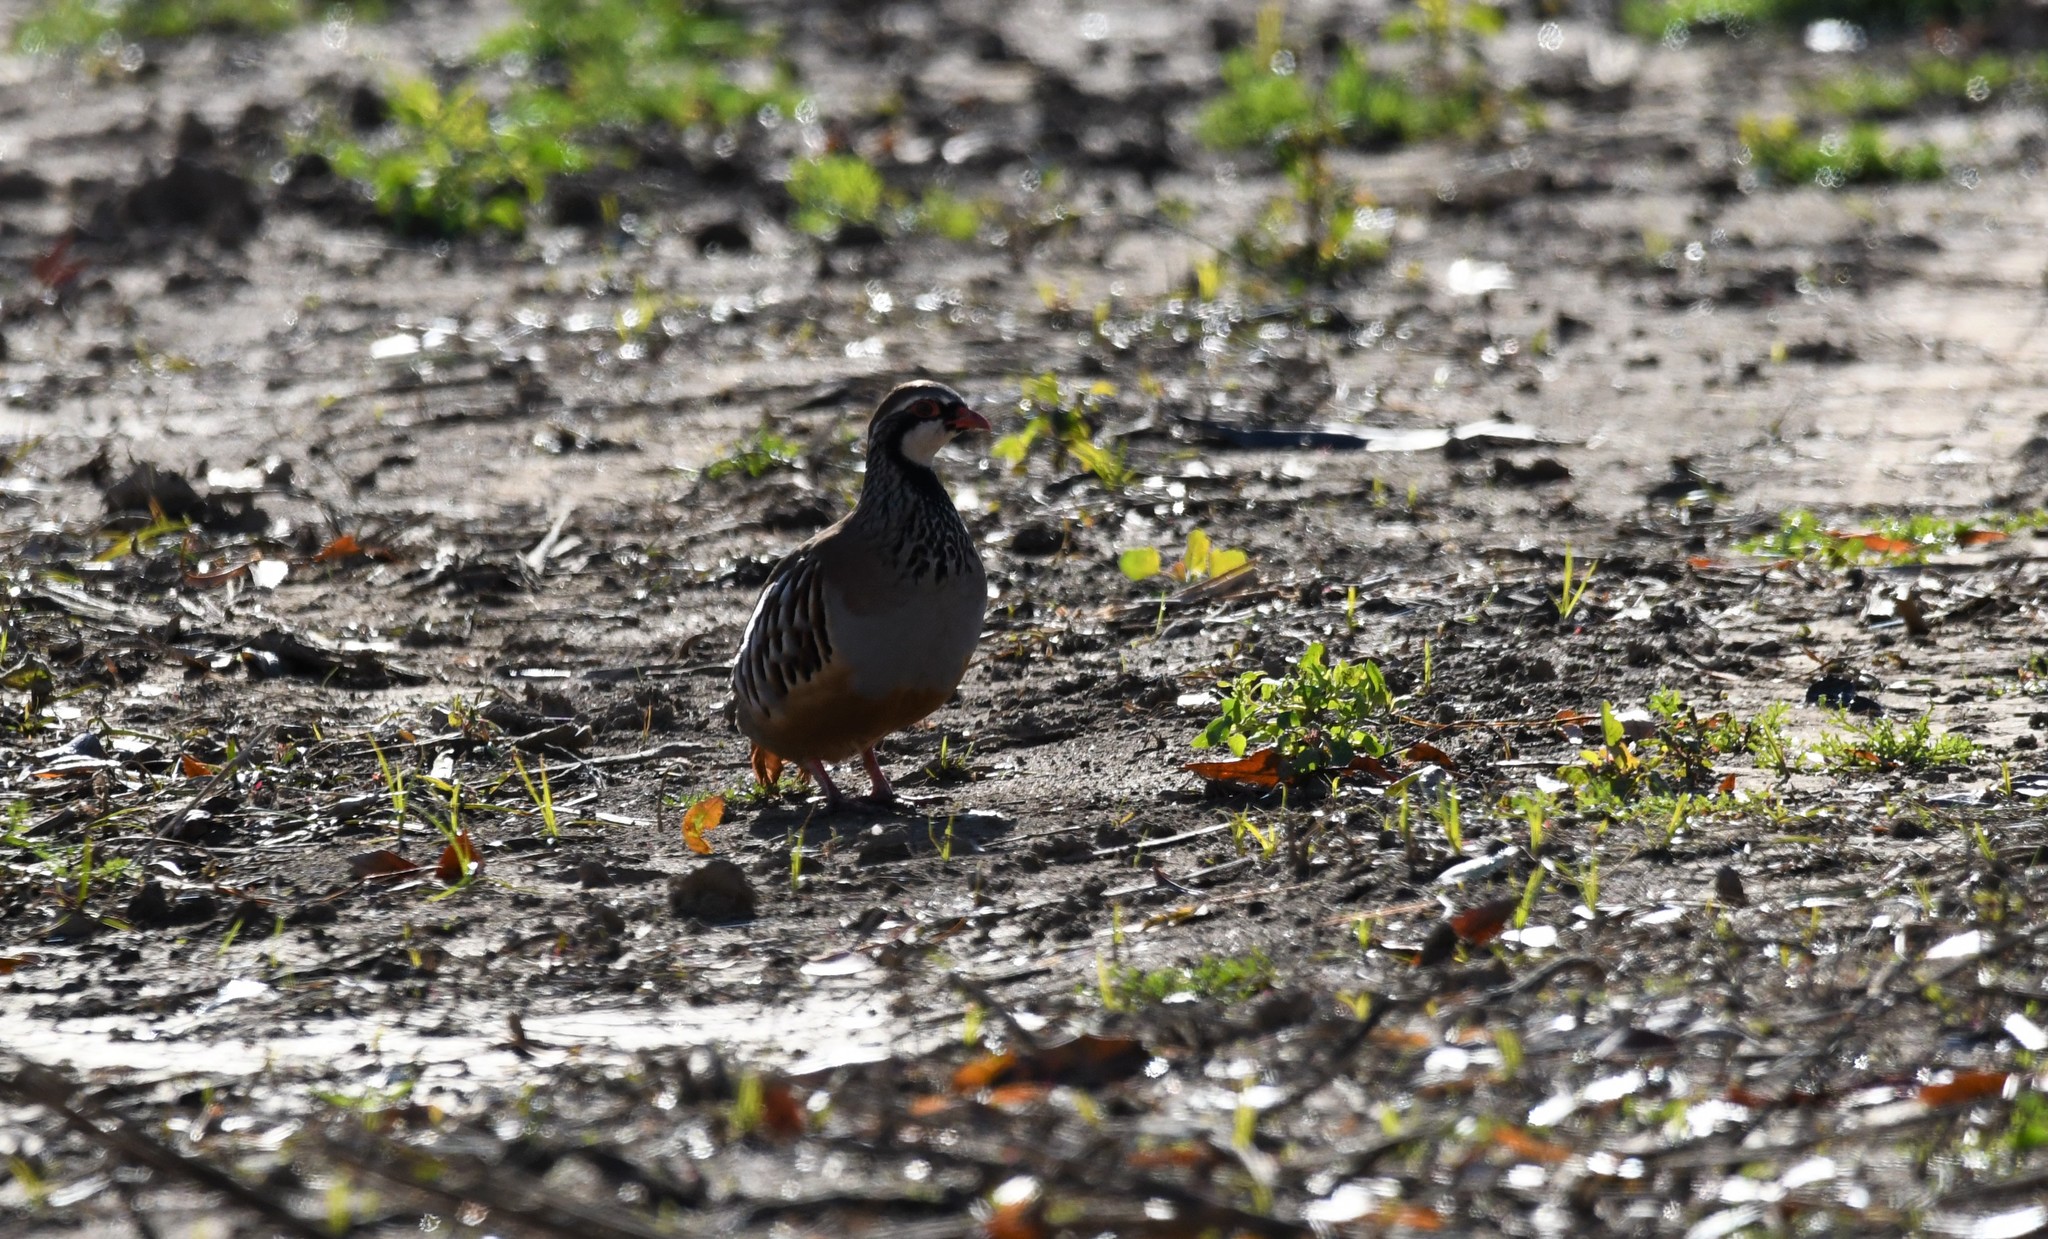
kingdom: Animalia
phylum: Chordata
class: Aves
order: Galliformes
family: Phasianidae
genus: Alectoris
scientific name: Alectoris rufa
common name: Red-legged partridge
